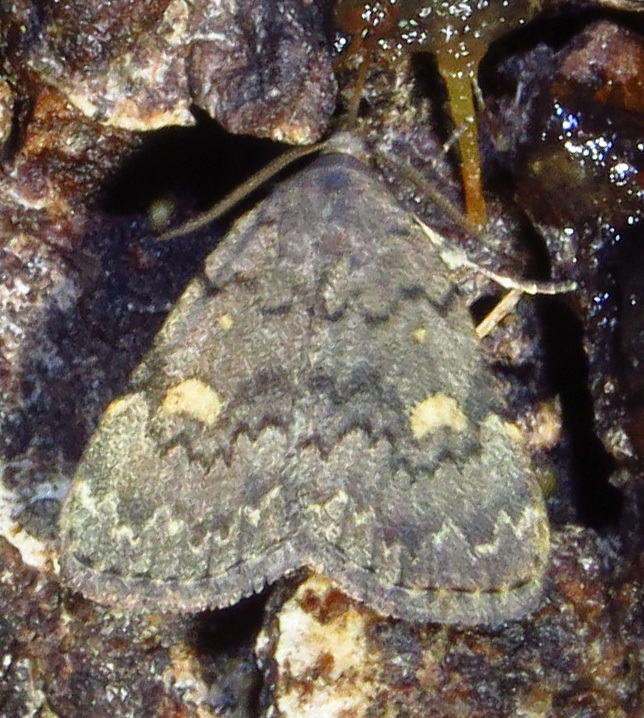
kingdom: Animalia
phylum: Arthropoda
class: Insecta
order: Lepidoptera
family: Erebidae
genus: Idia
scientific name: Idia aemula
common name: Common idia moth
